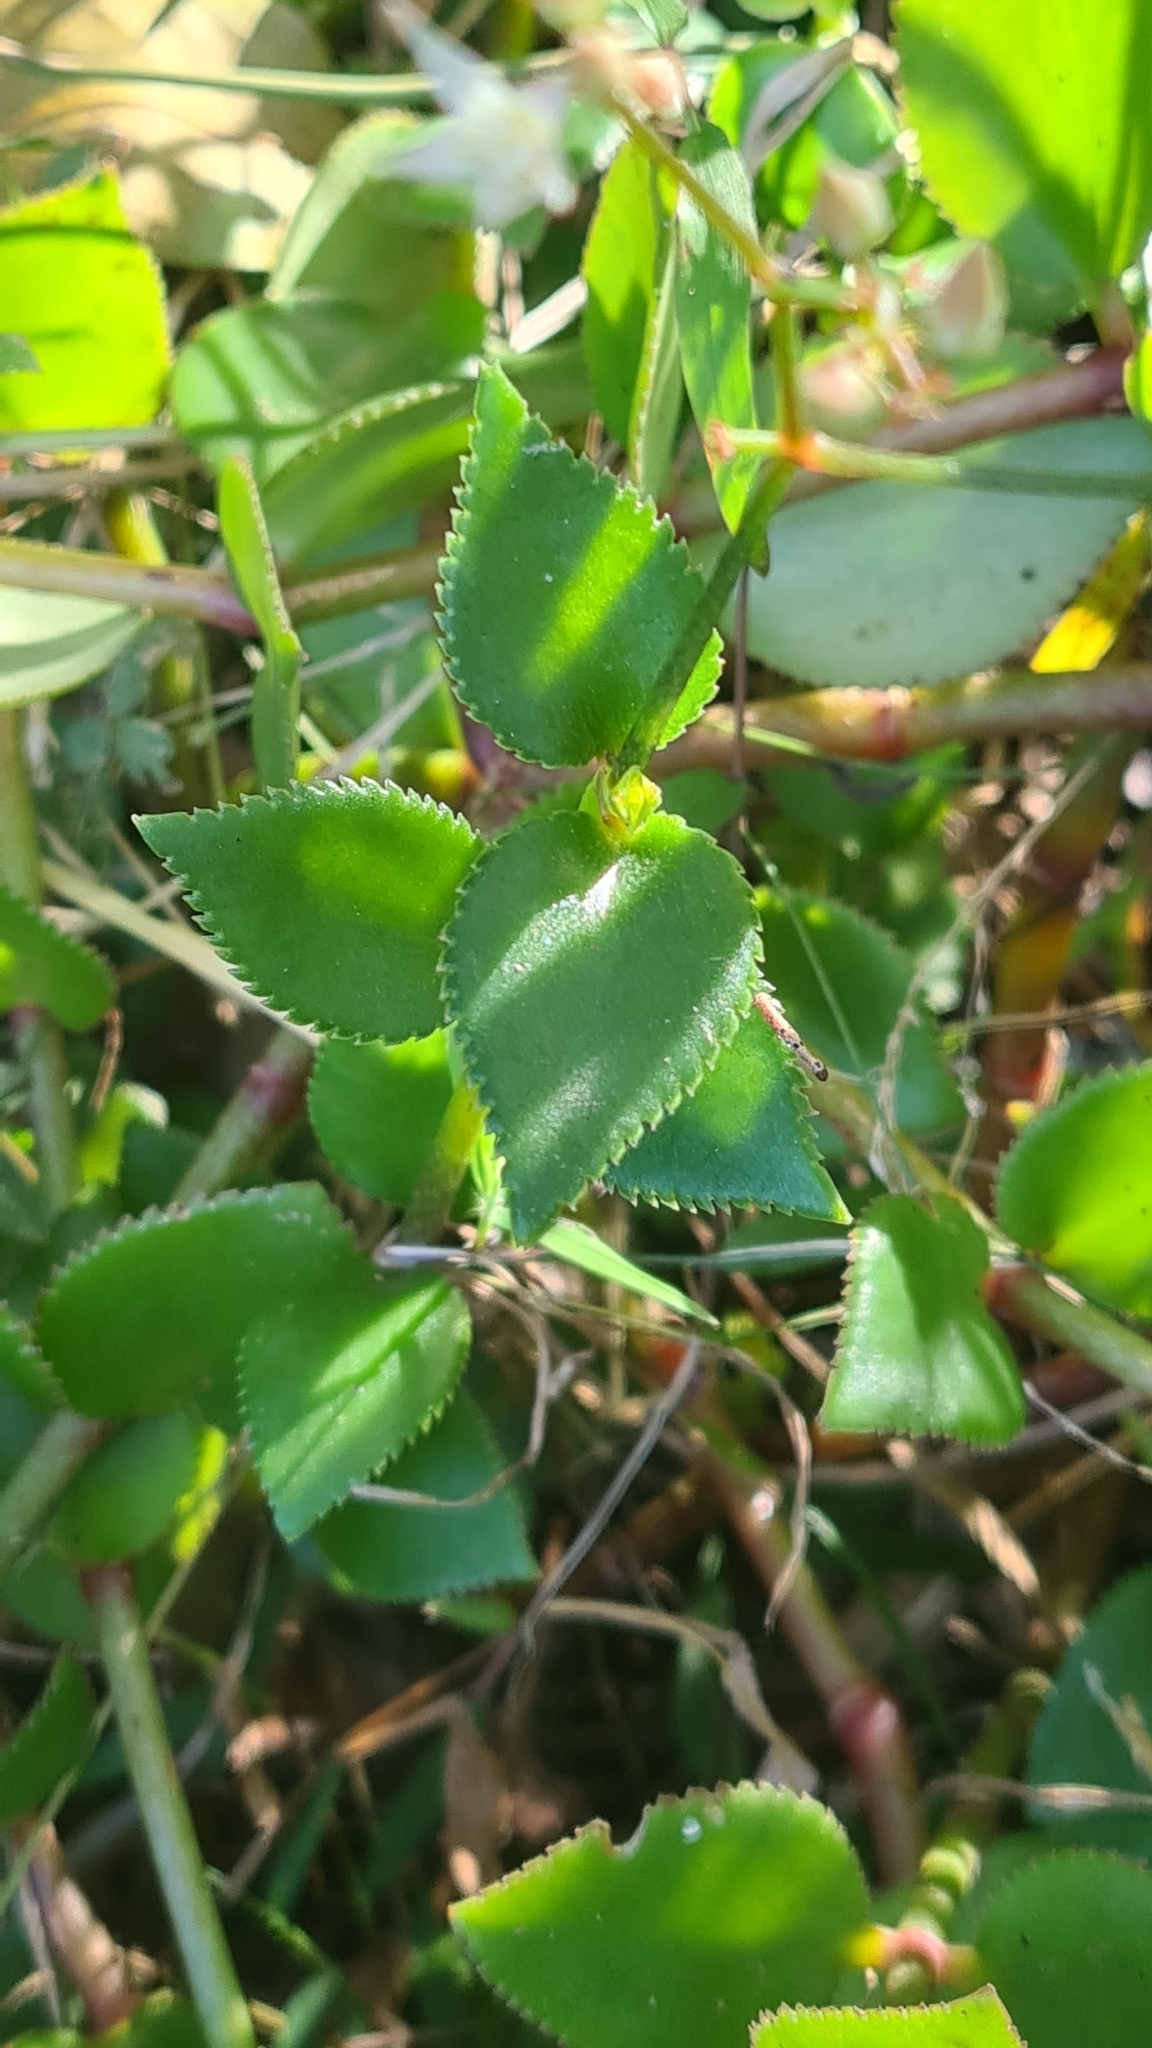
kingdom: Plantae
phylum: Tracheophyta
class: Magnoliopsida
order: Saxifragales
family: Crassulaceae
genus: Crassula
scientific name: Crassula sarmentosa
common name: Jade-tree
